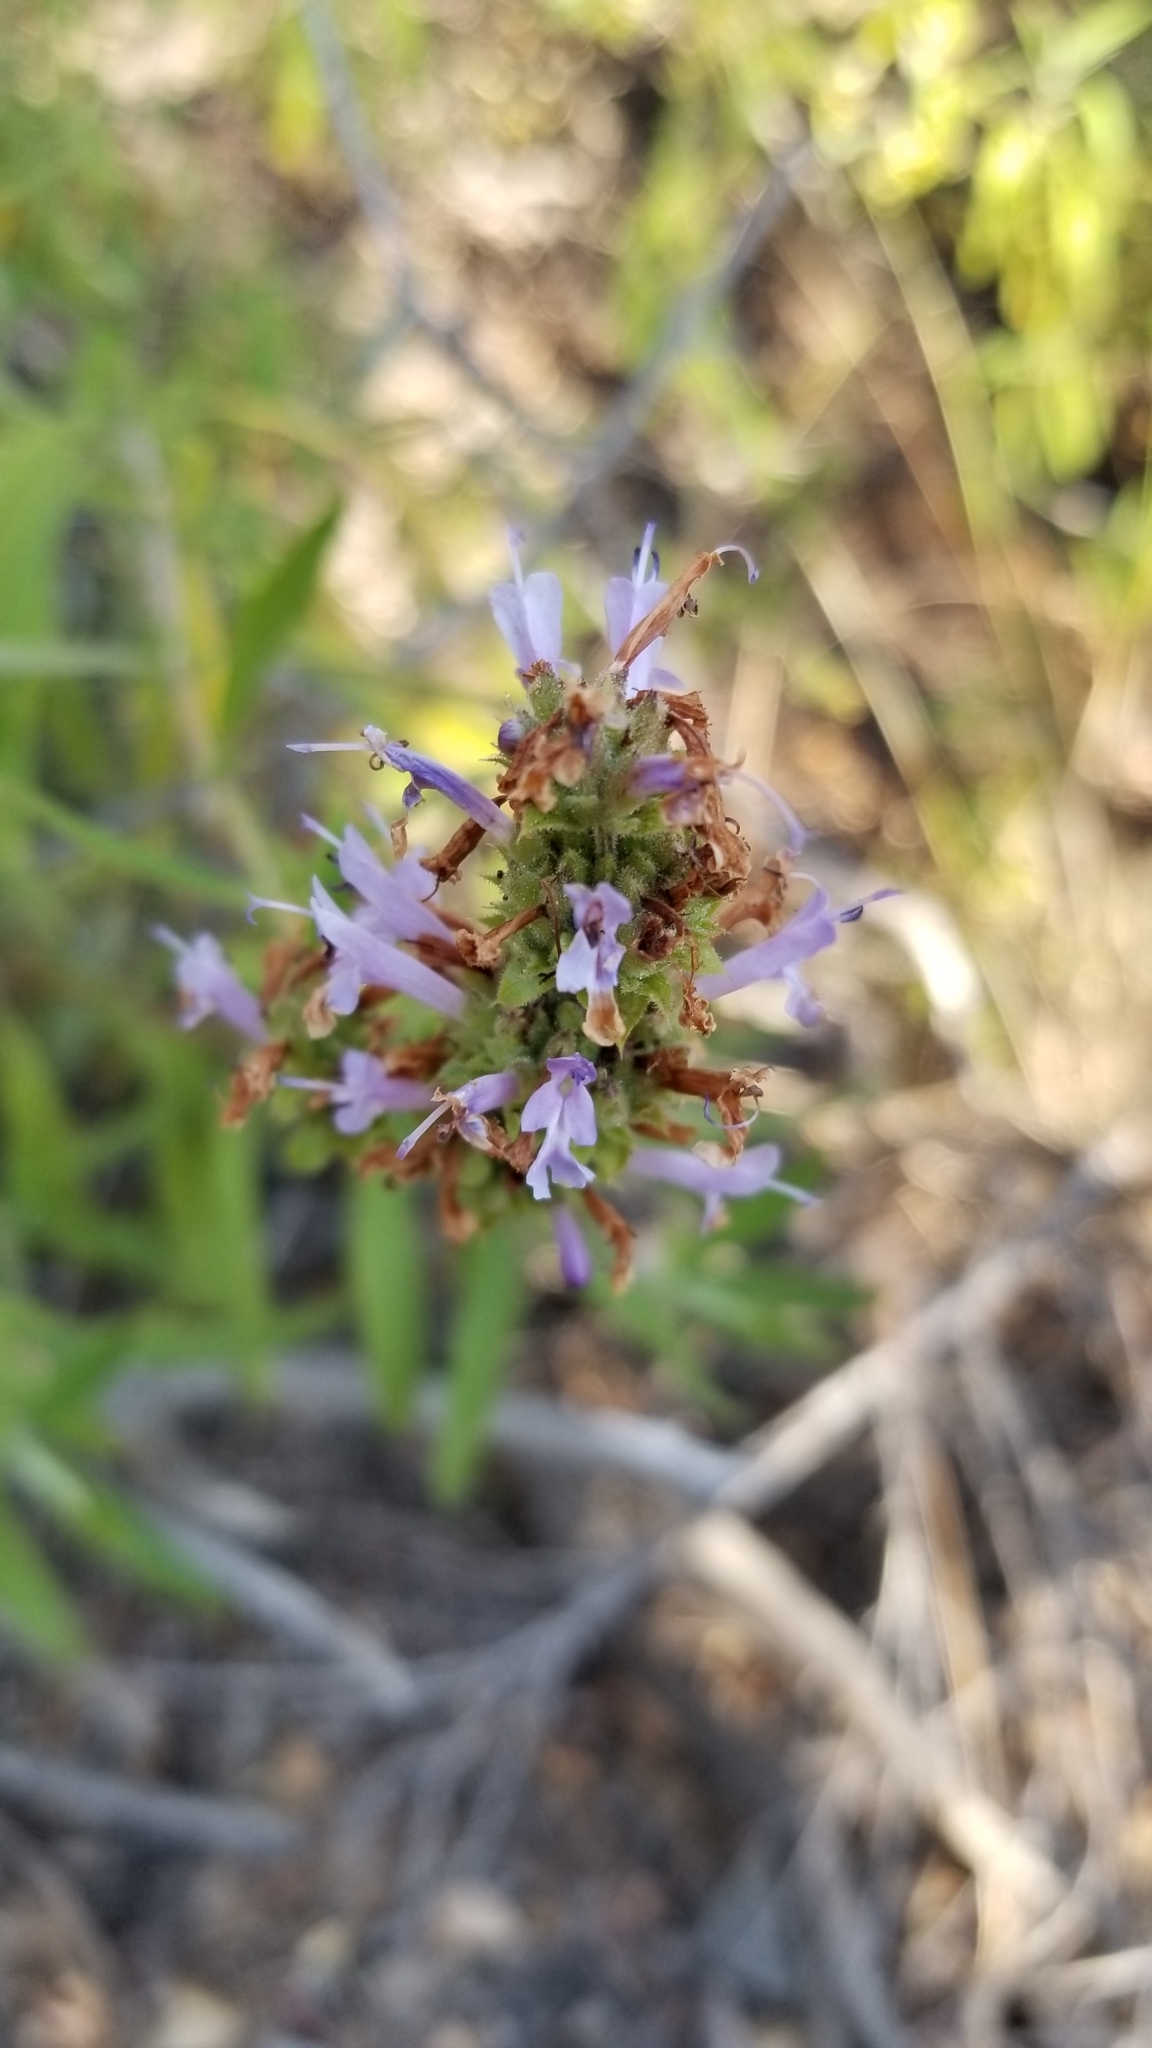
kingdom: Plantae
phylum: Tracheophyta
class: Magnoliopsida
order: Lamiales
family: Lamiaceae
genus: Salvia
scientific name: Salvia mellifera
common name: Black sage
